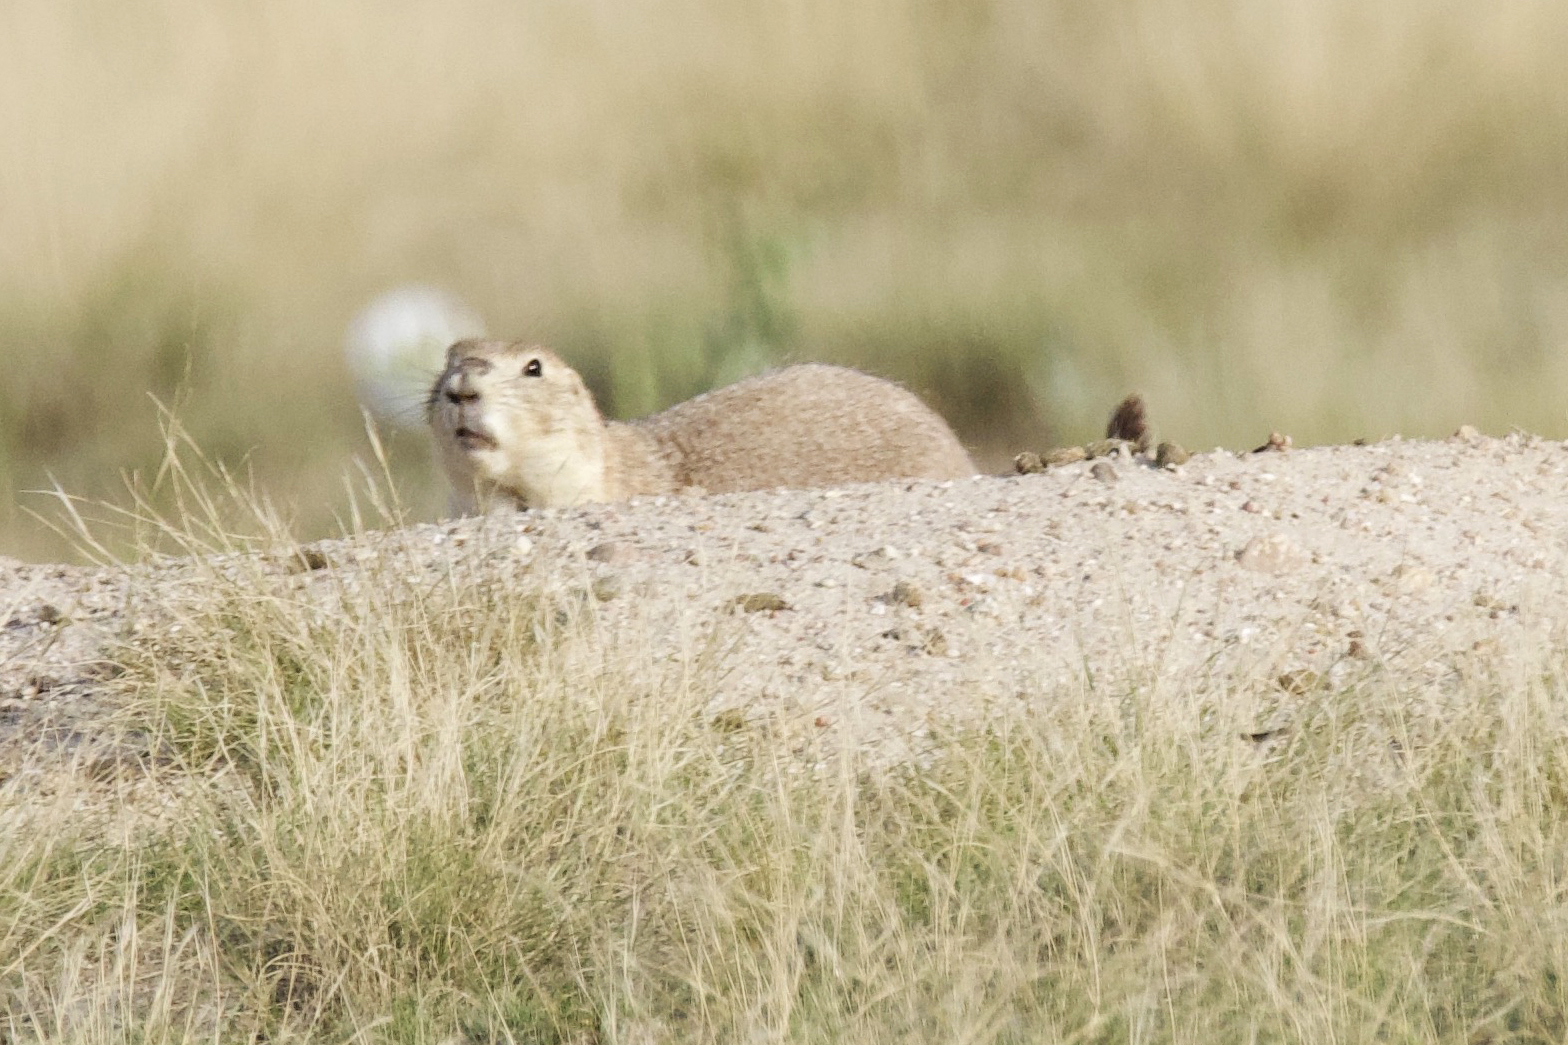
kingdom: Animalia
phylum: Chordata
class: Mammalia
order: Rodentia
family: Sciuridae
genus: Cynomys
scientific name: Cynomys ludovicianus
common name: Black-tailed prairie dog
